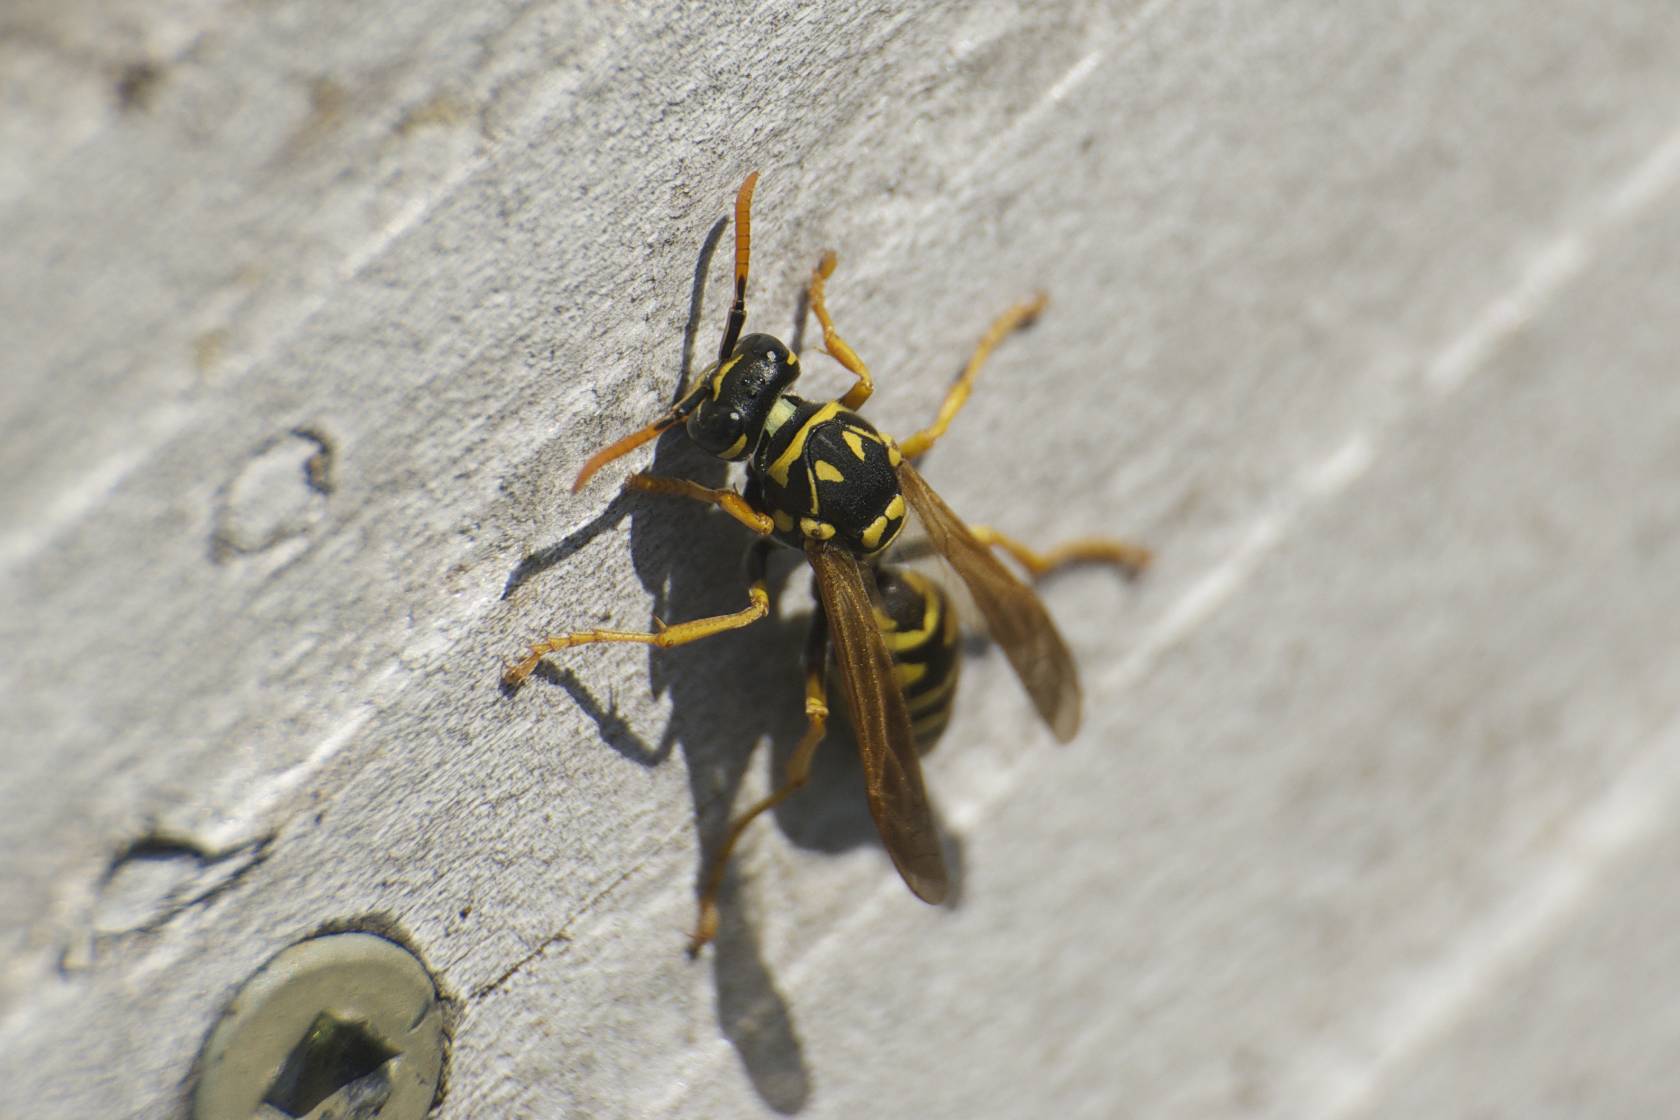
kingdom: Animalia
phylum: Arthropoda
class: Insecta
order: Hymenoptera
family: Eumenidae
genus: Polistes
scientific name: Polistes dominula
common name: Paper wasp
